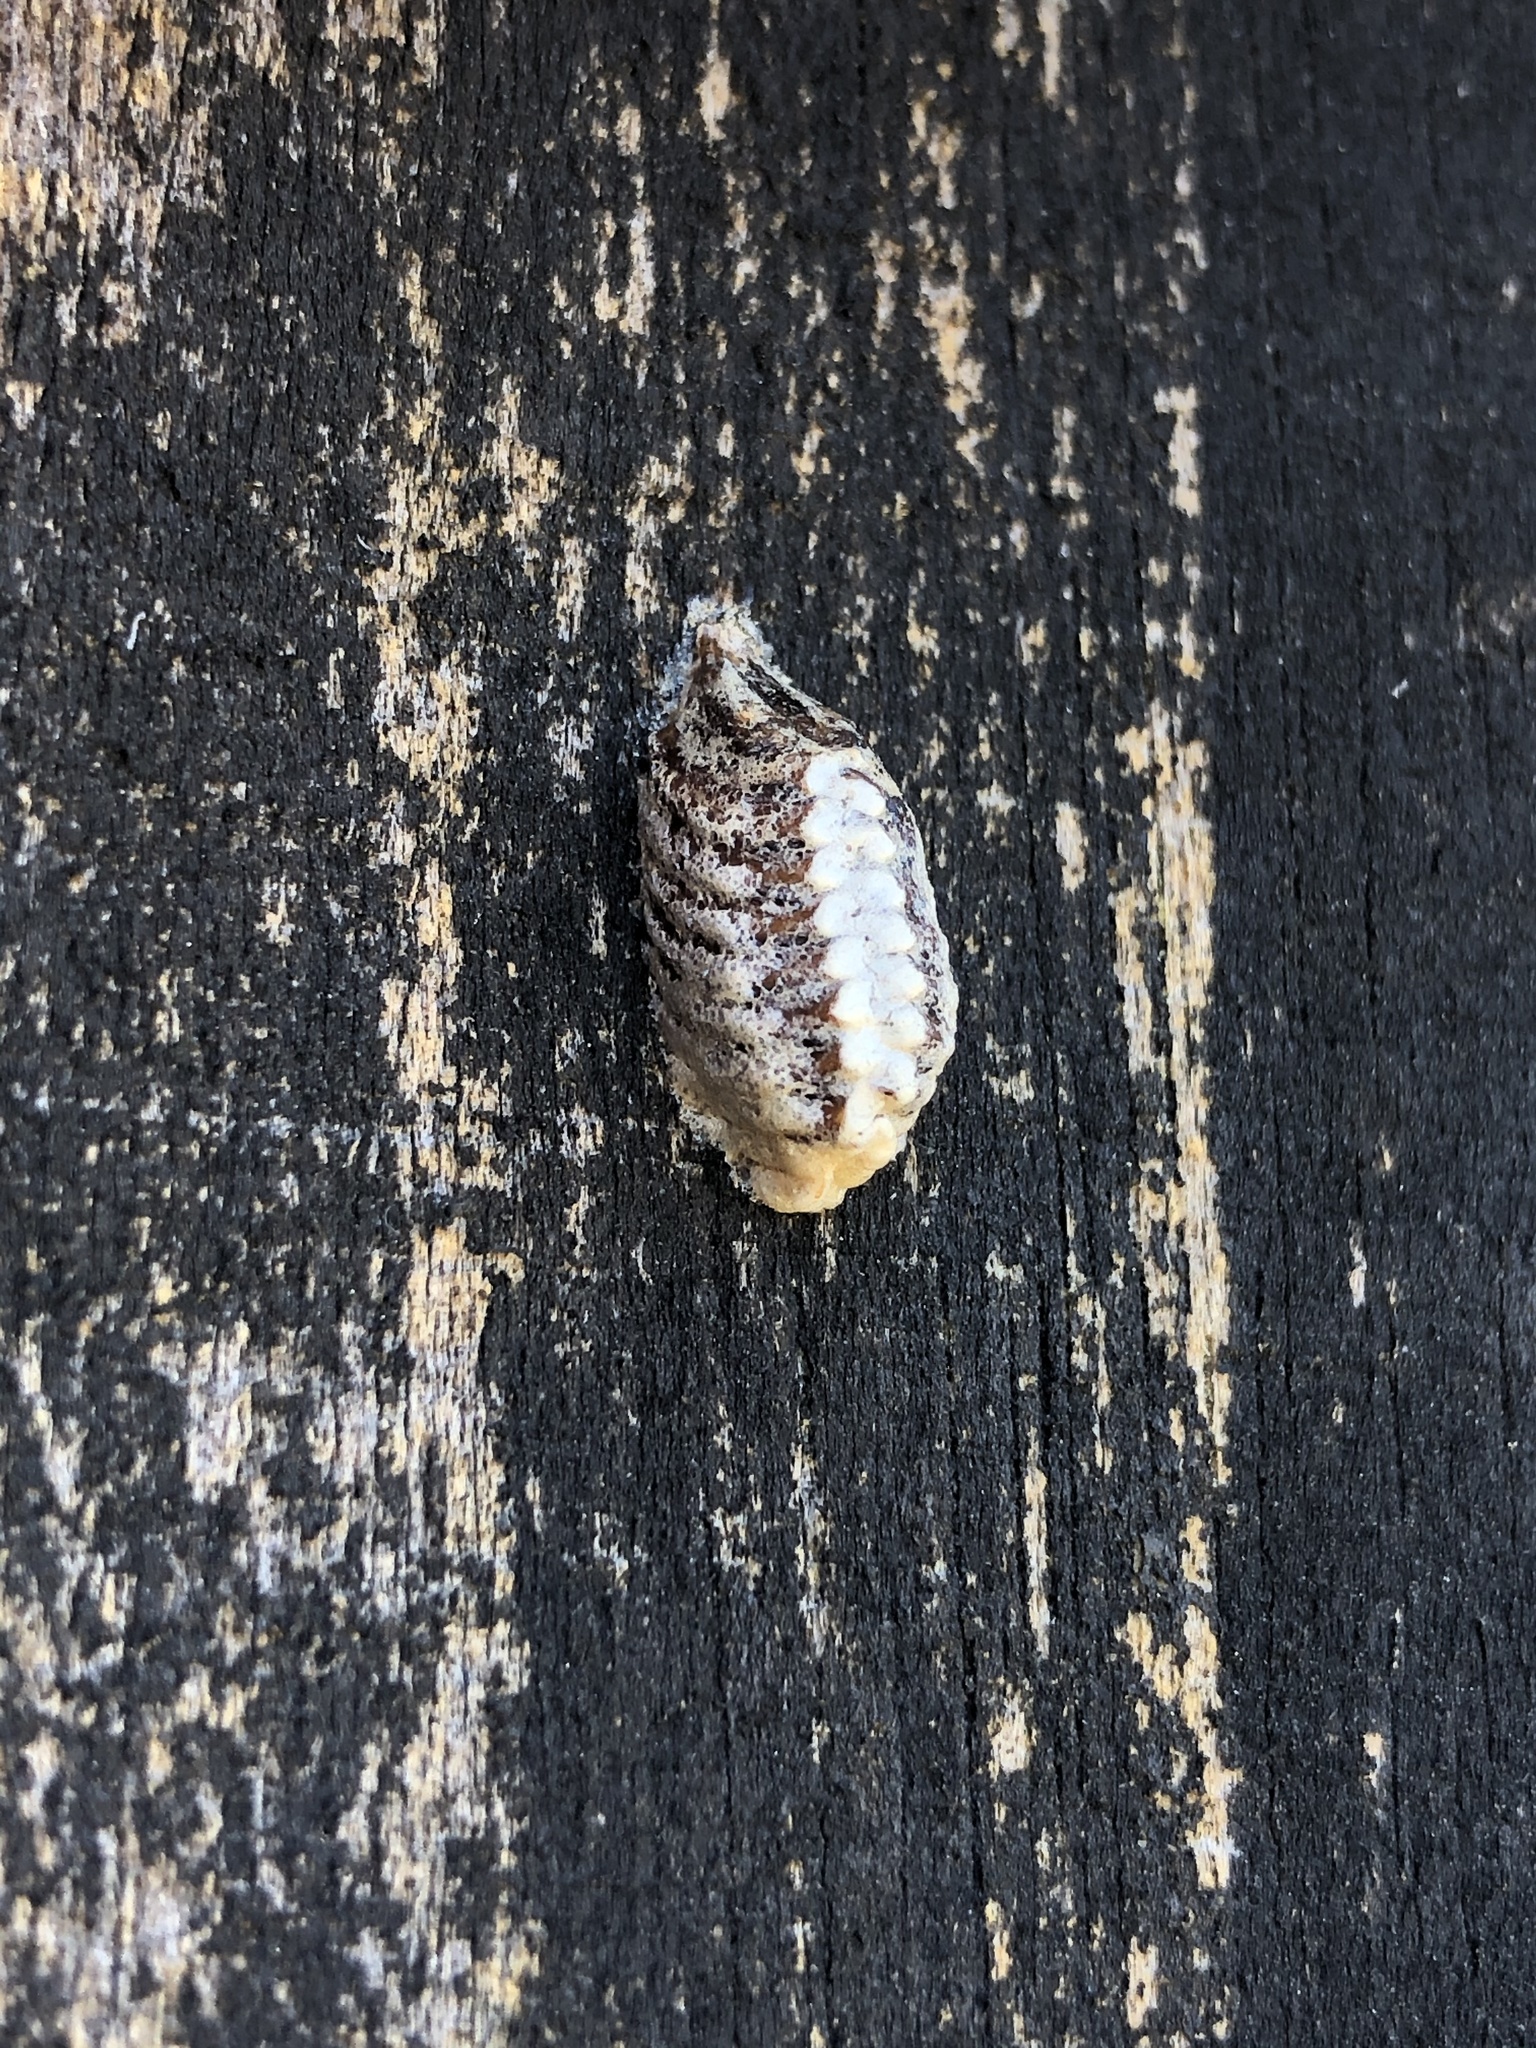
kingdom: Animalia
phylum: Arthropoda
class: Insecta
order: Mantodea
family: Mantidae
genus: Orthodera
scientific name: Orthodera novaezealandiae
